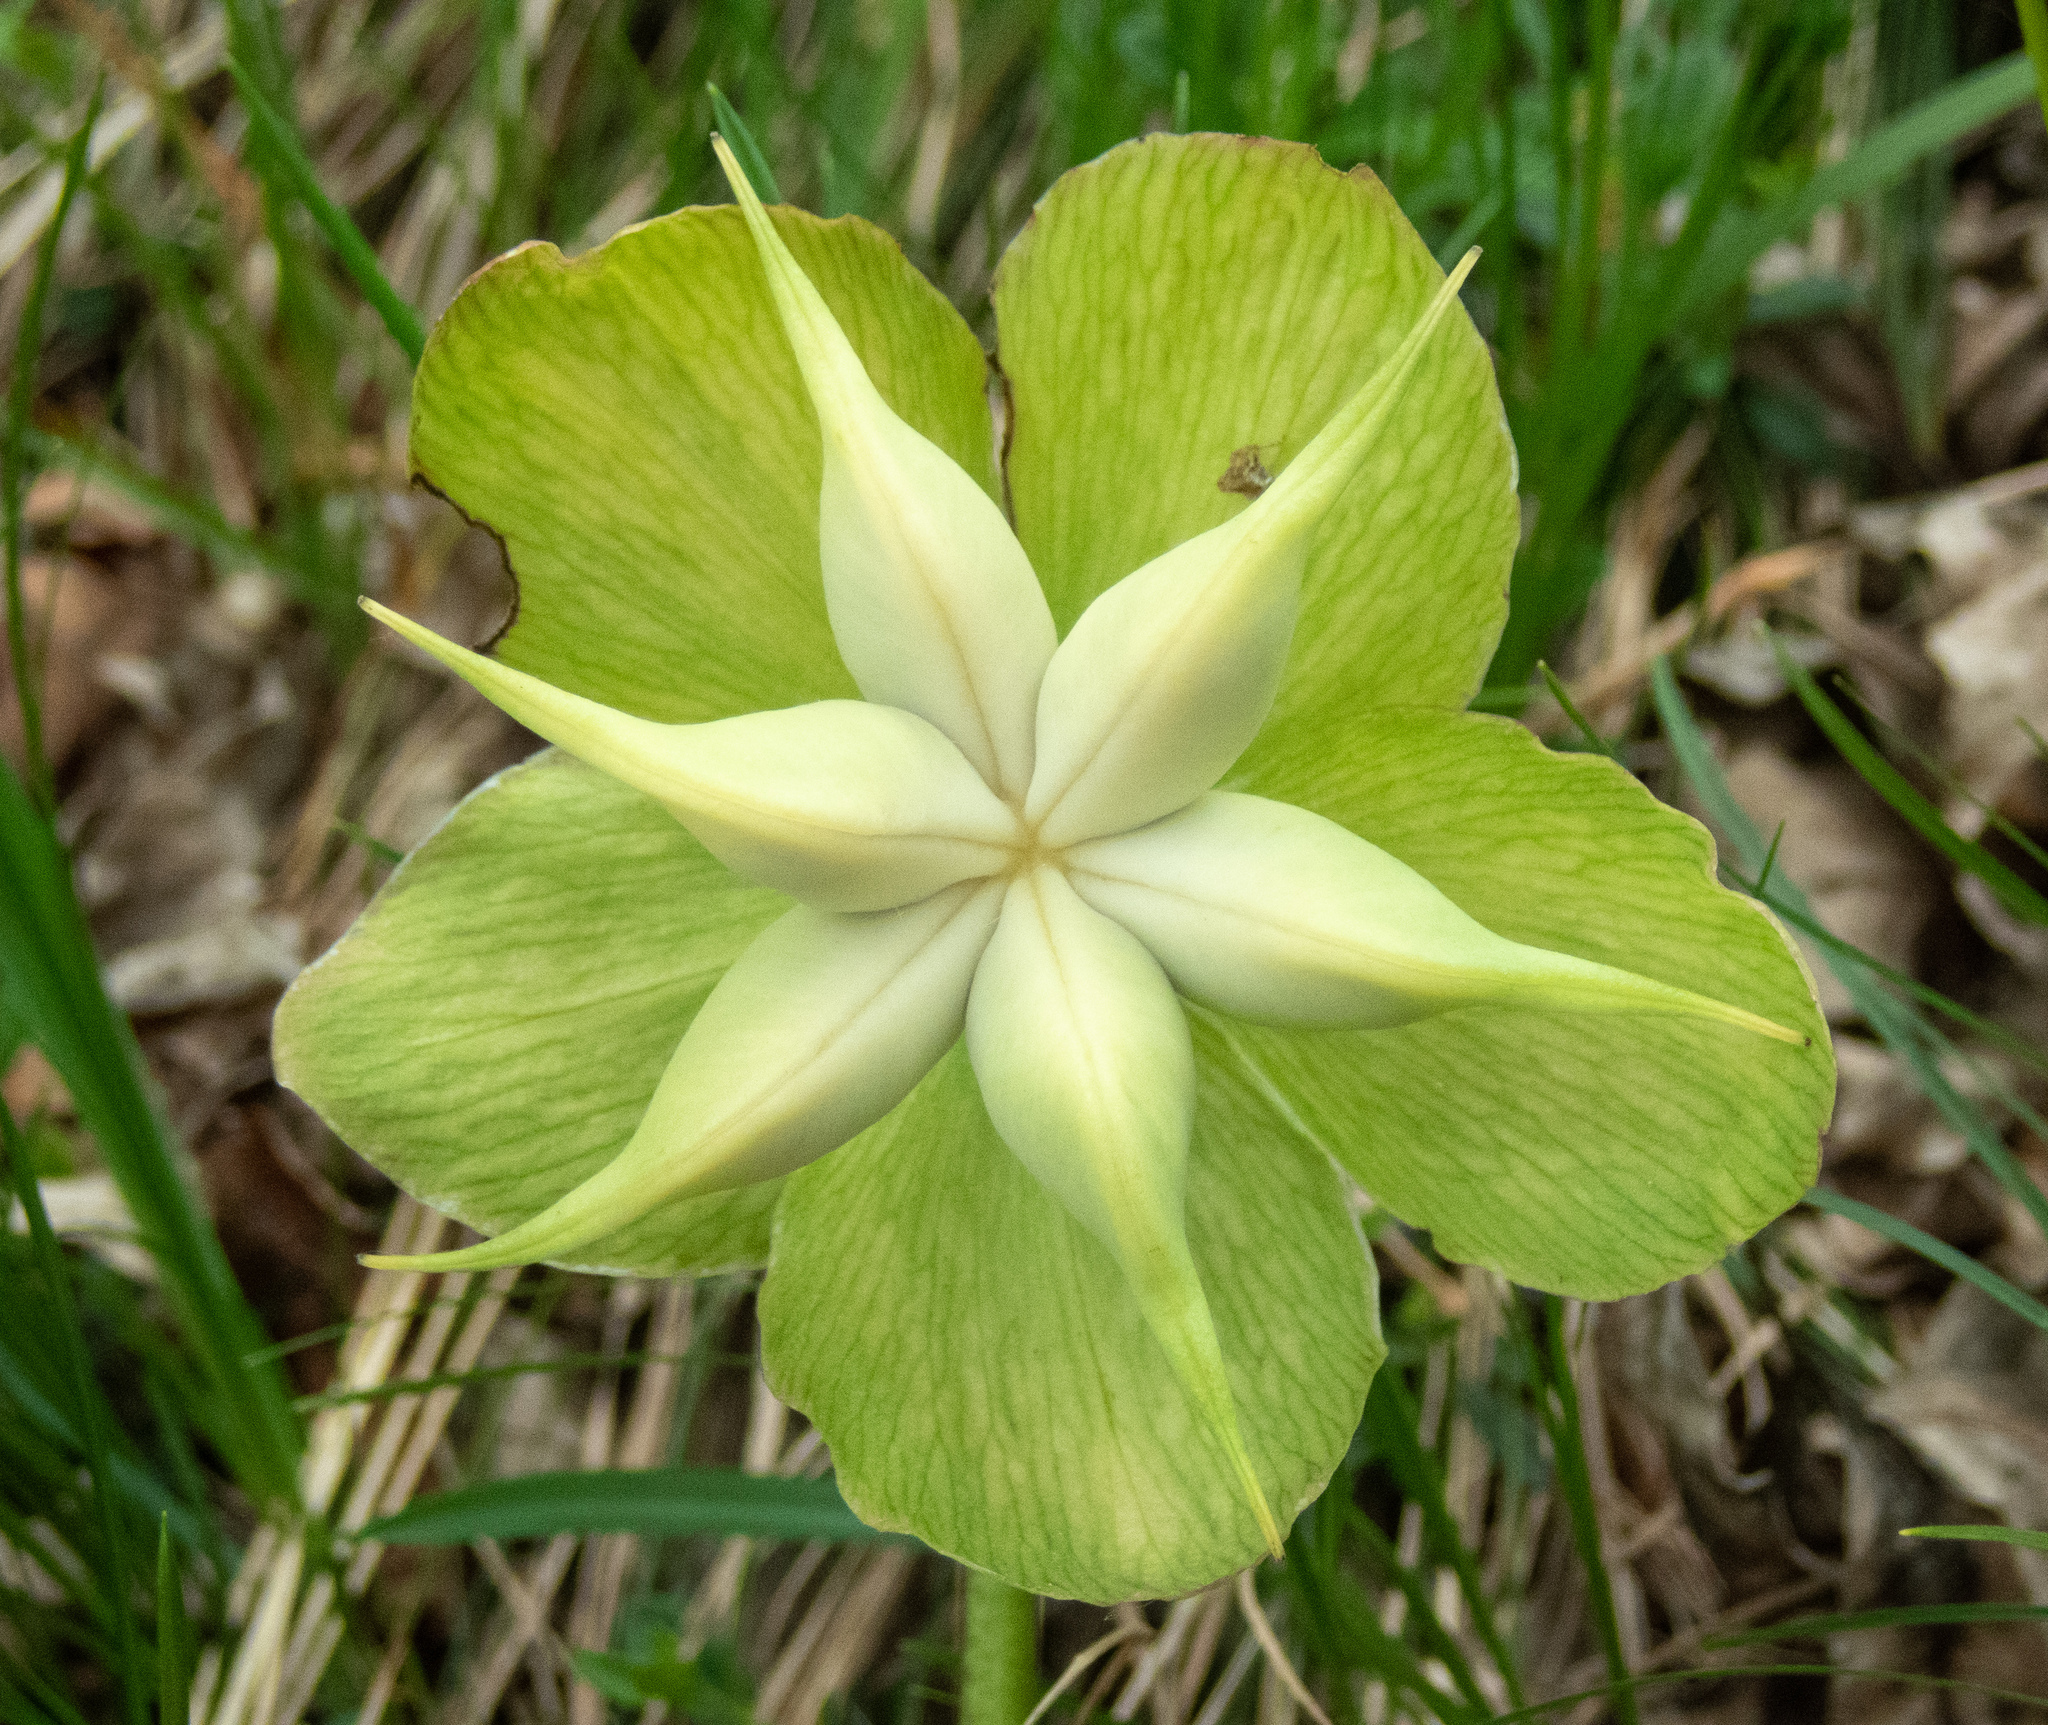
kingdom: Plantae
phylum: Tracheophyta
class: Magnoliopsida
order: Ranunculales
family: Ranunculaceae
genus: Helleborus
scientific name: Helleborus niger
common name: Black hellebore
